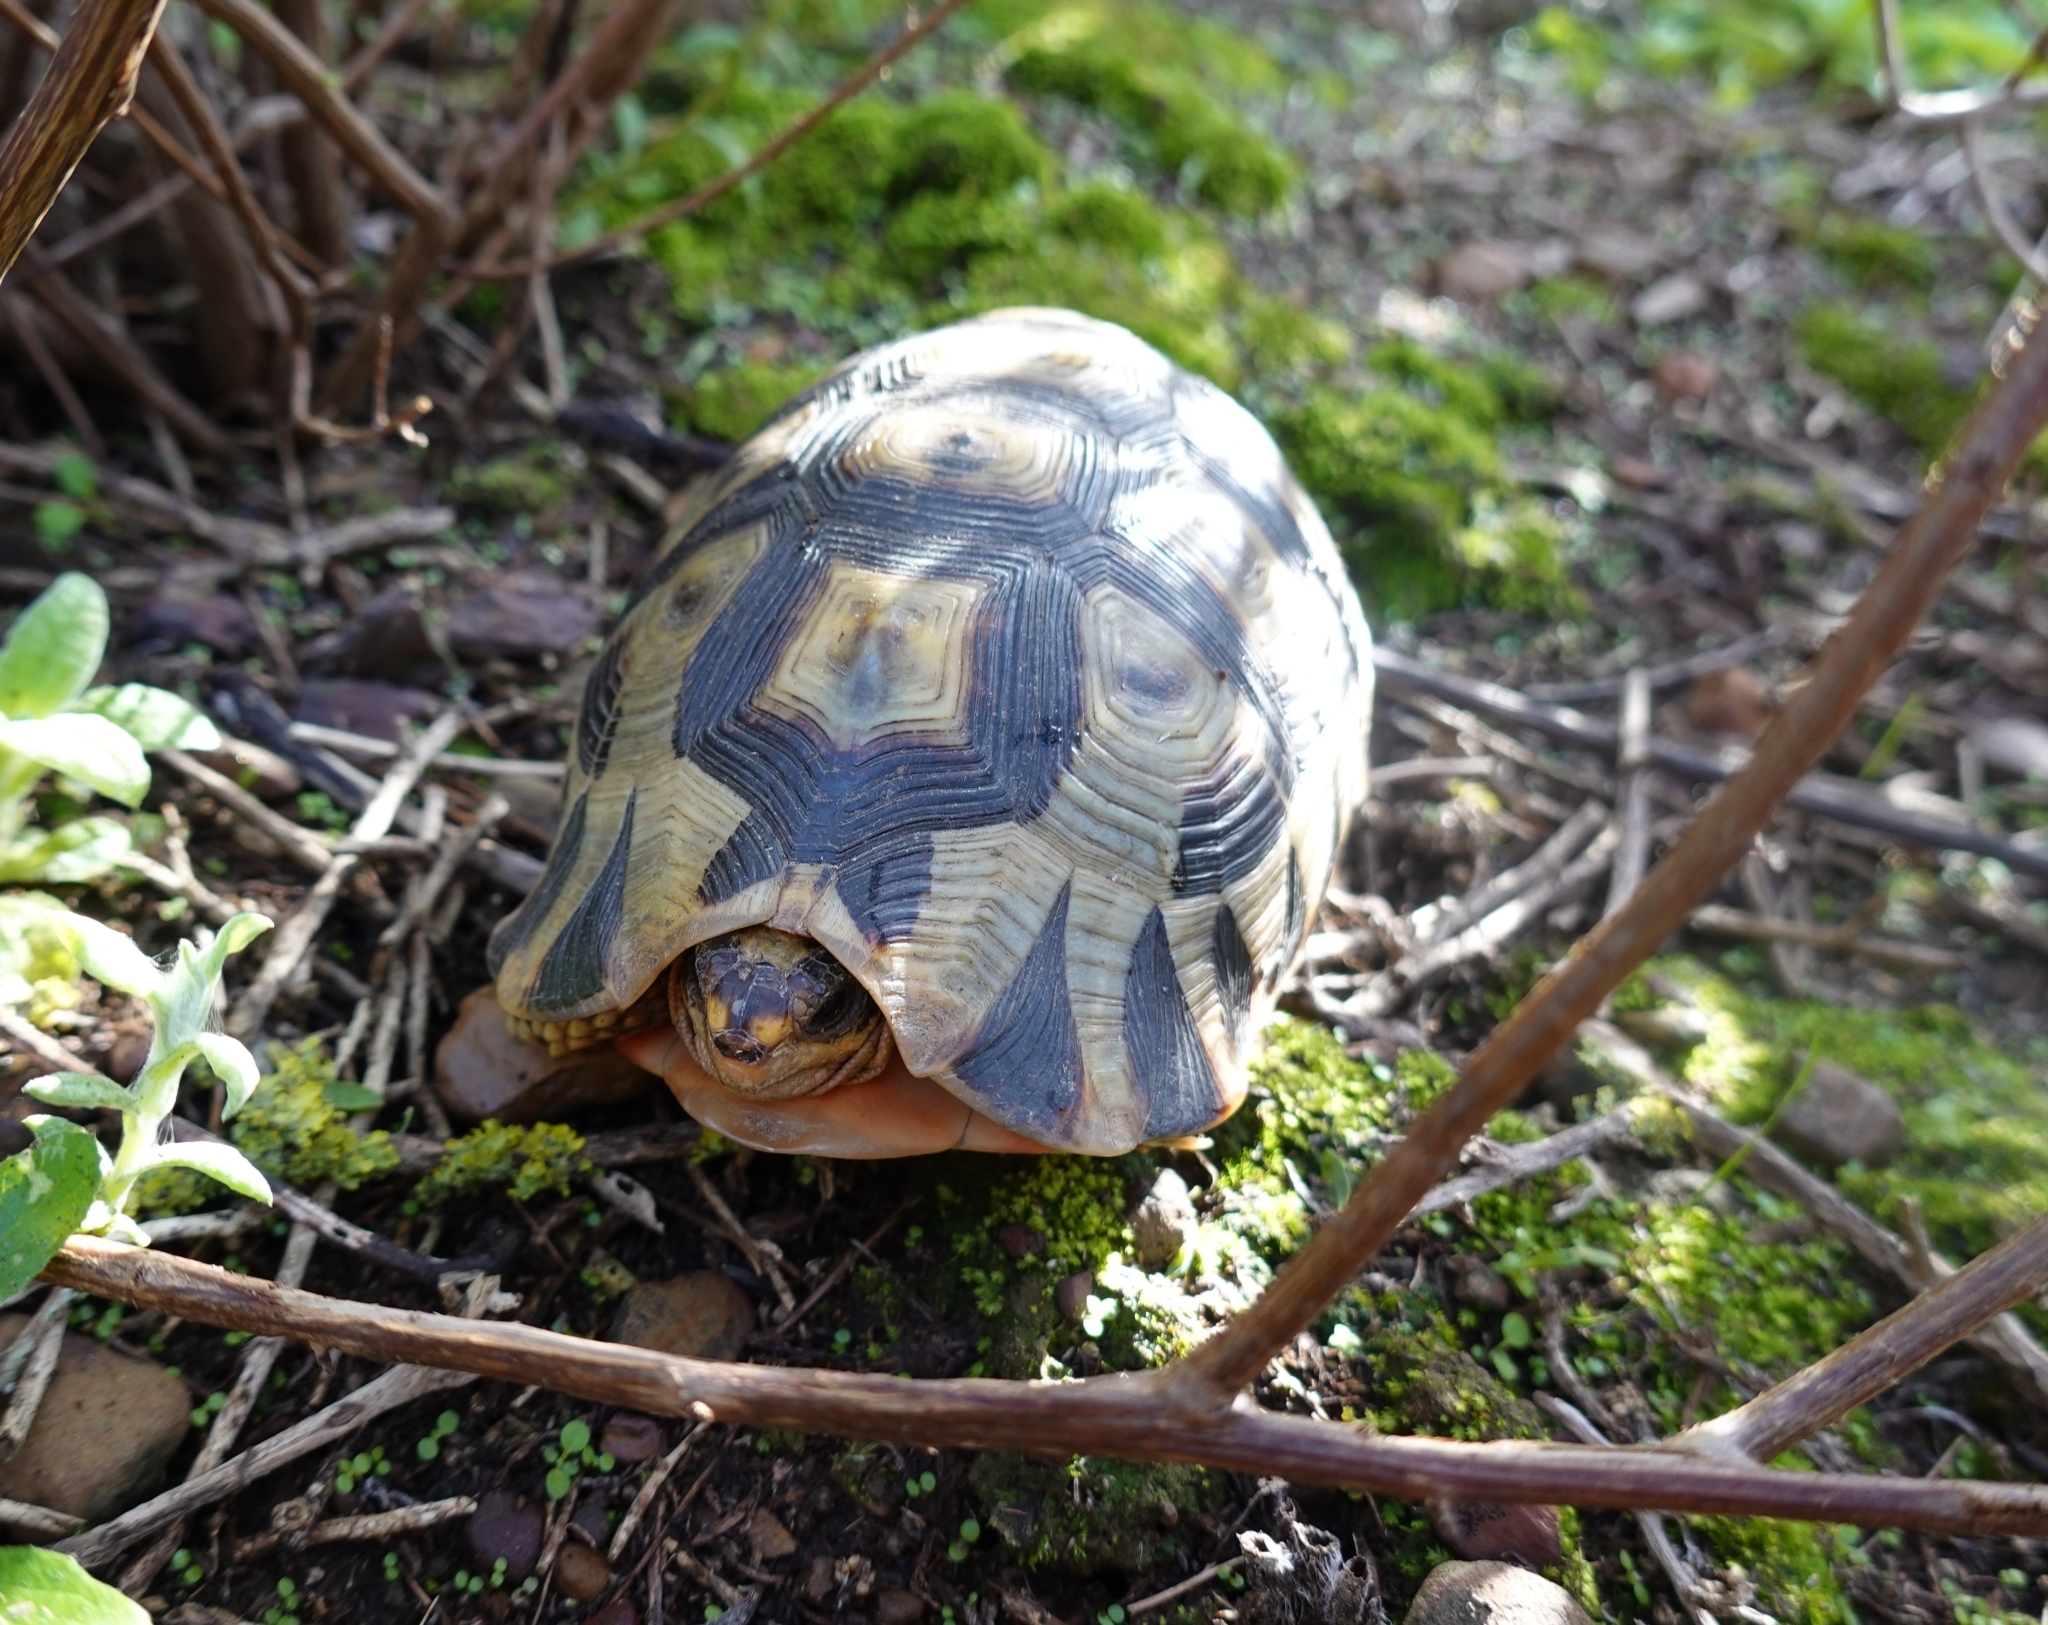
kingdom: Animalia
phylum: Chordata
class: Testudines
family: Testudinidae
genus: Chersina
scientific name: Chersina angulata
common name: South african bowsprit tortoise
